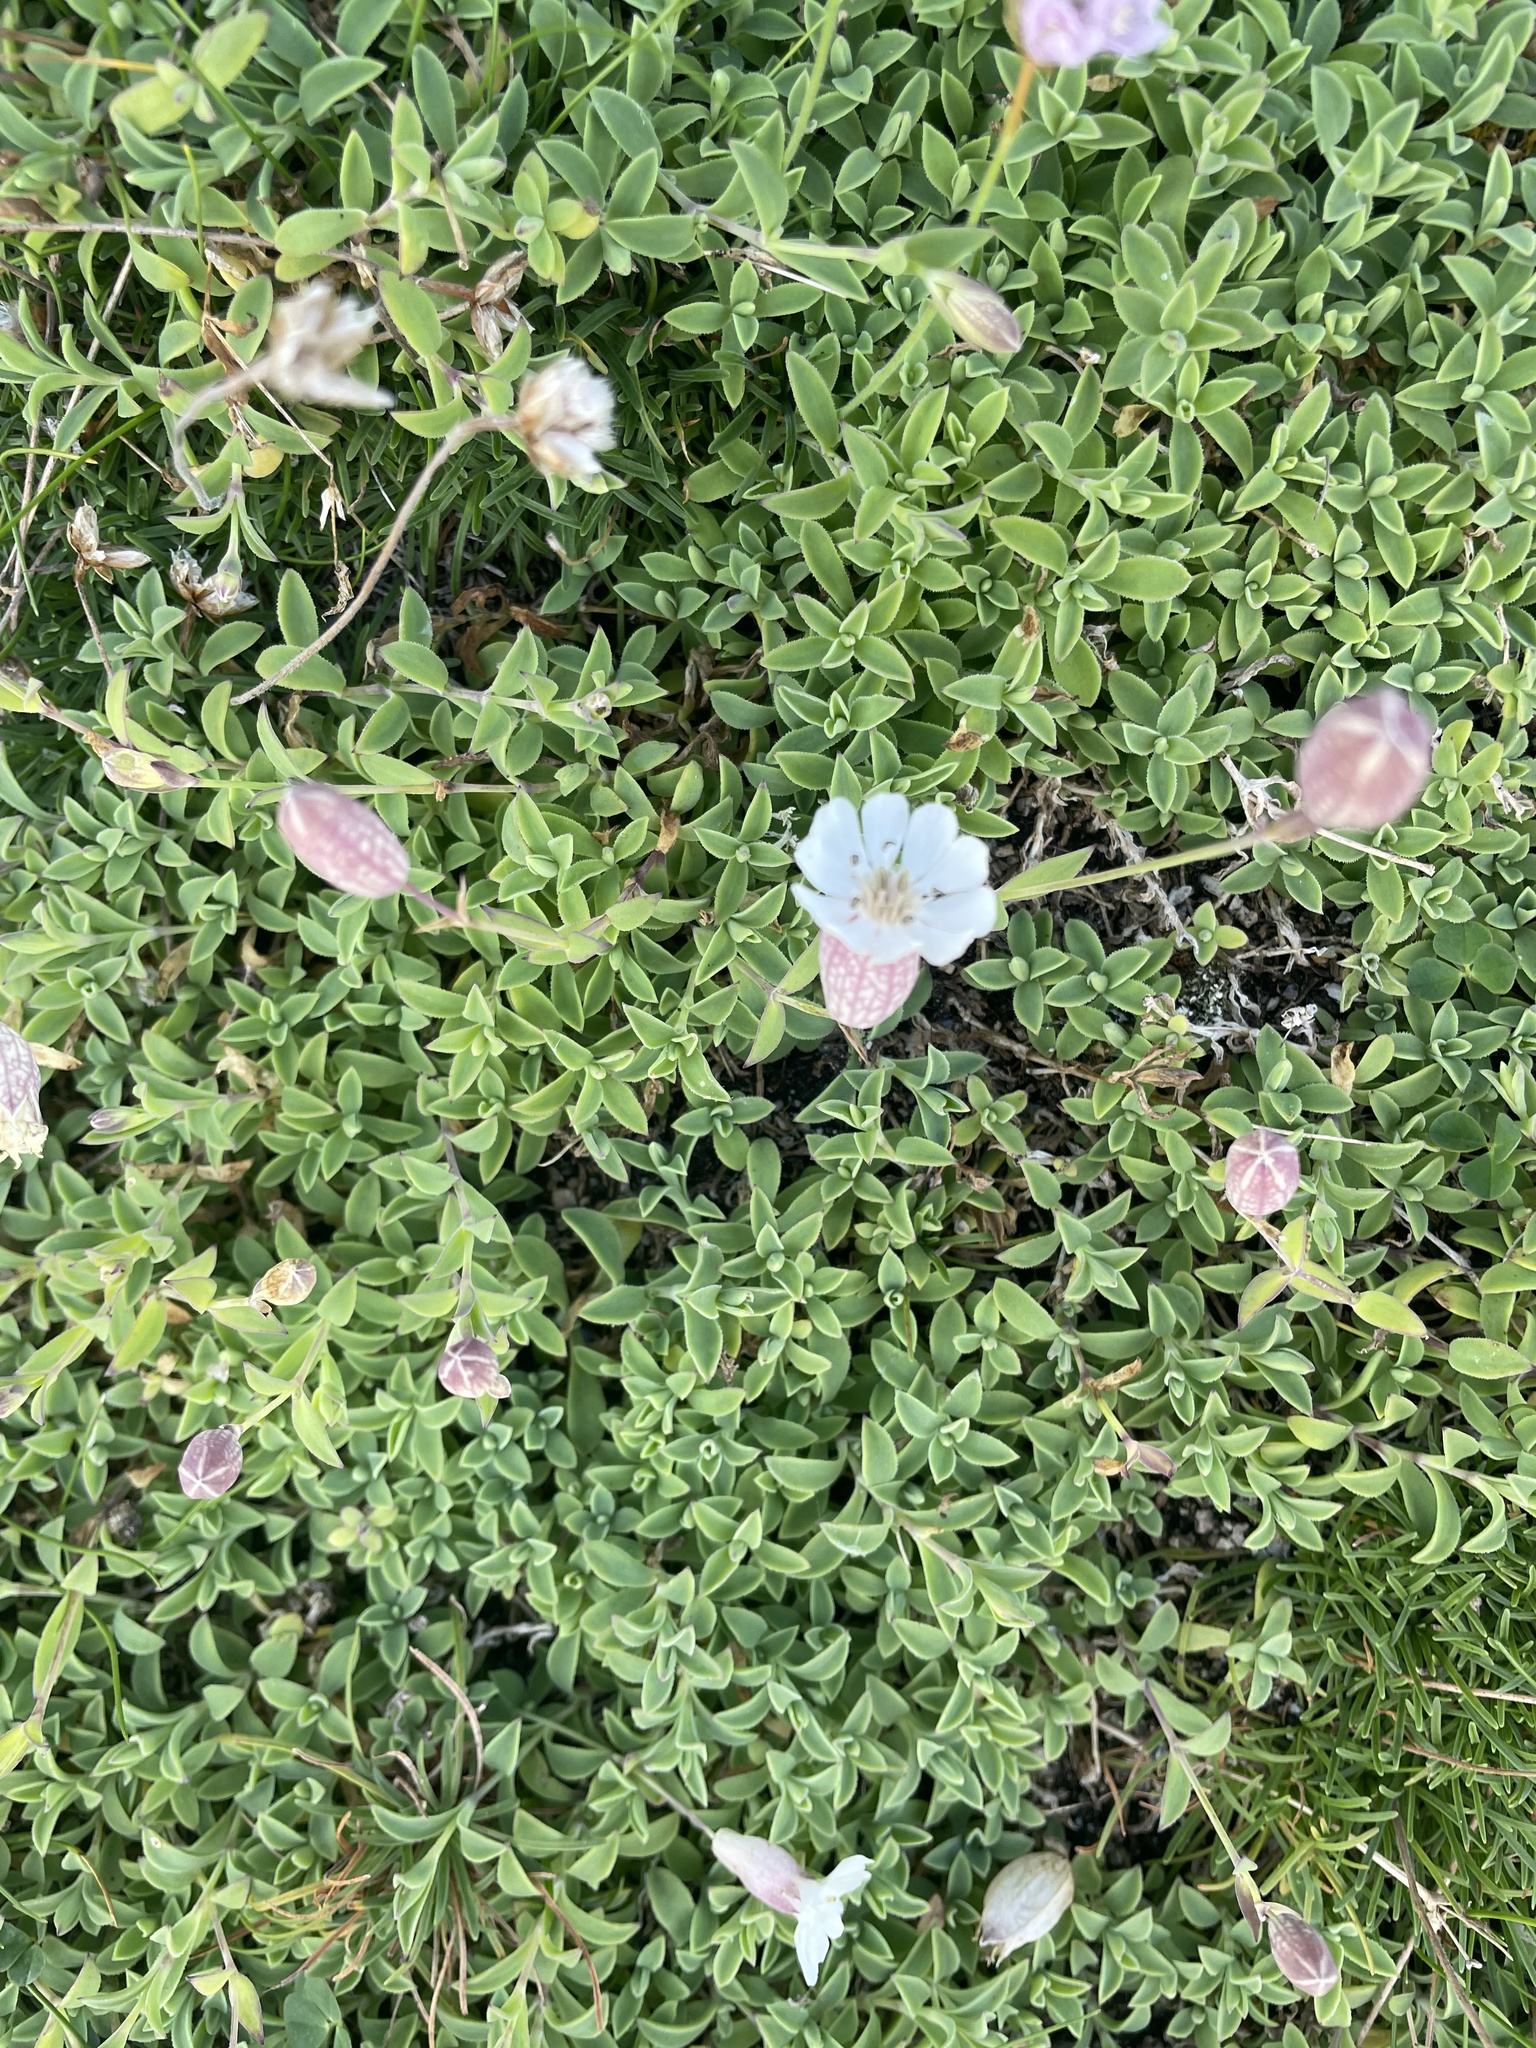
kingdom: Plantae
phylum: Tracheophyta
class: Magnoliopsida
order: Caryophyllales
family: Caryophyllaceae
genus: Silene
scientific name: Silene uniflora
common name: Sea campion
